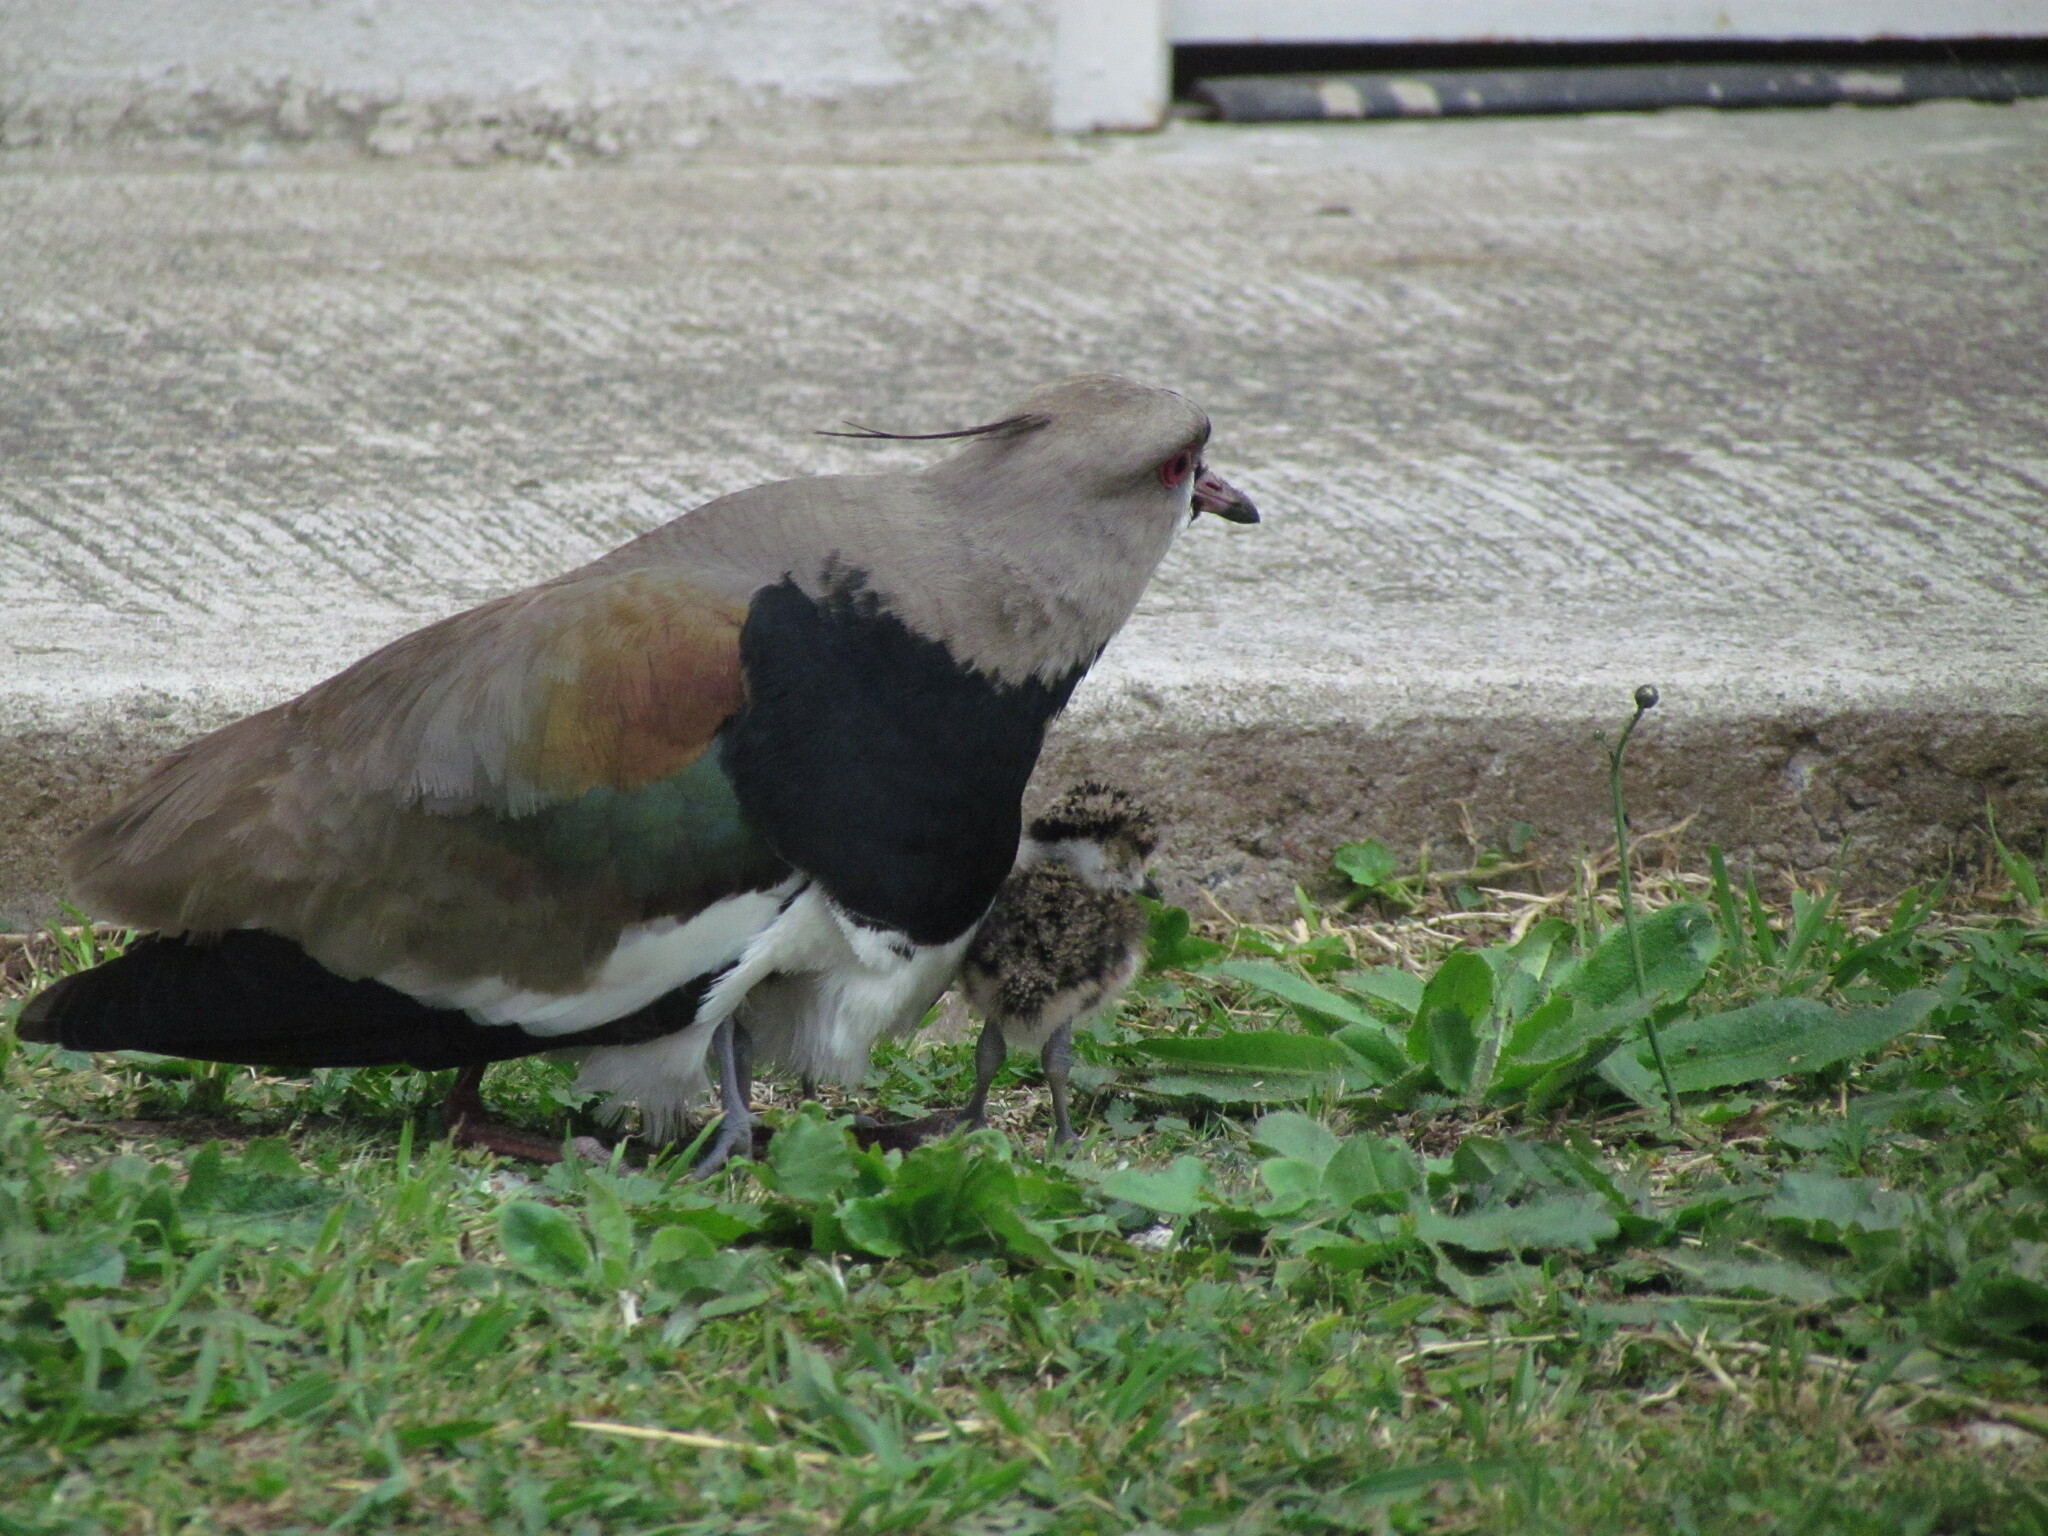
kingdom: Animalia
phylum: Chordata
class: Aves
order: Charadriiformes
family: Charadriidae
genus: Vanellus
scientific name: Vanellus chilensis
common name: Southern lapwing
